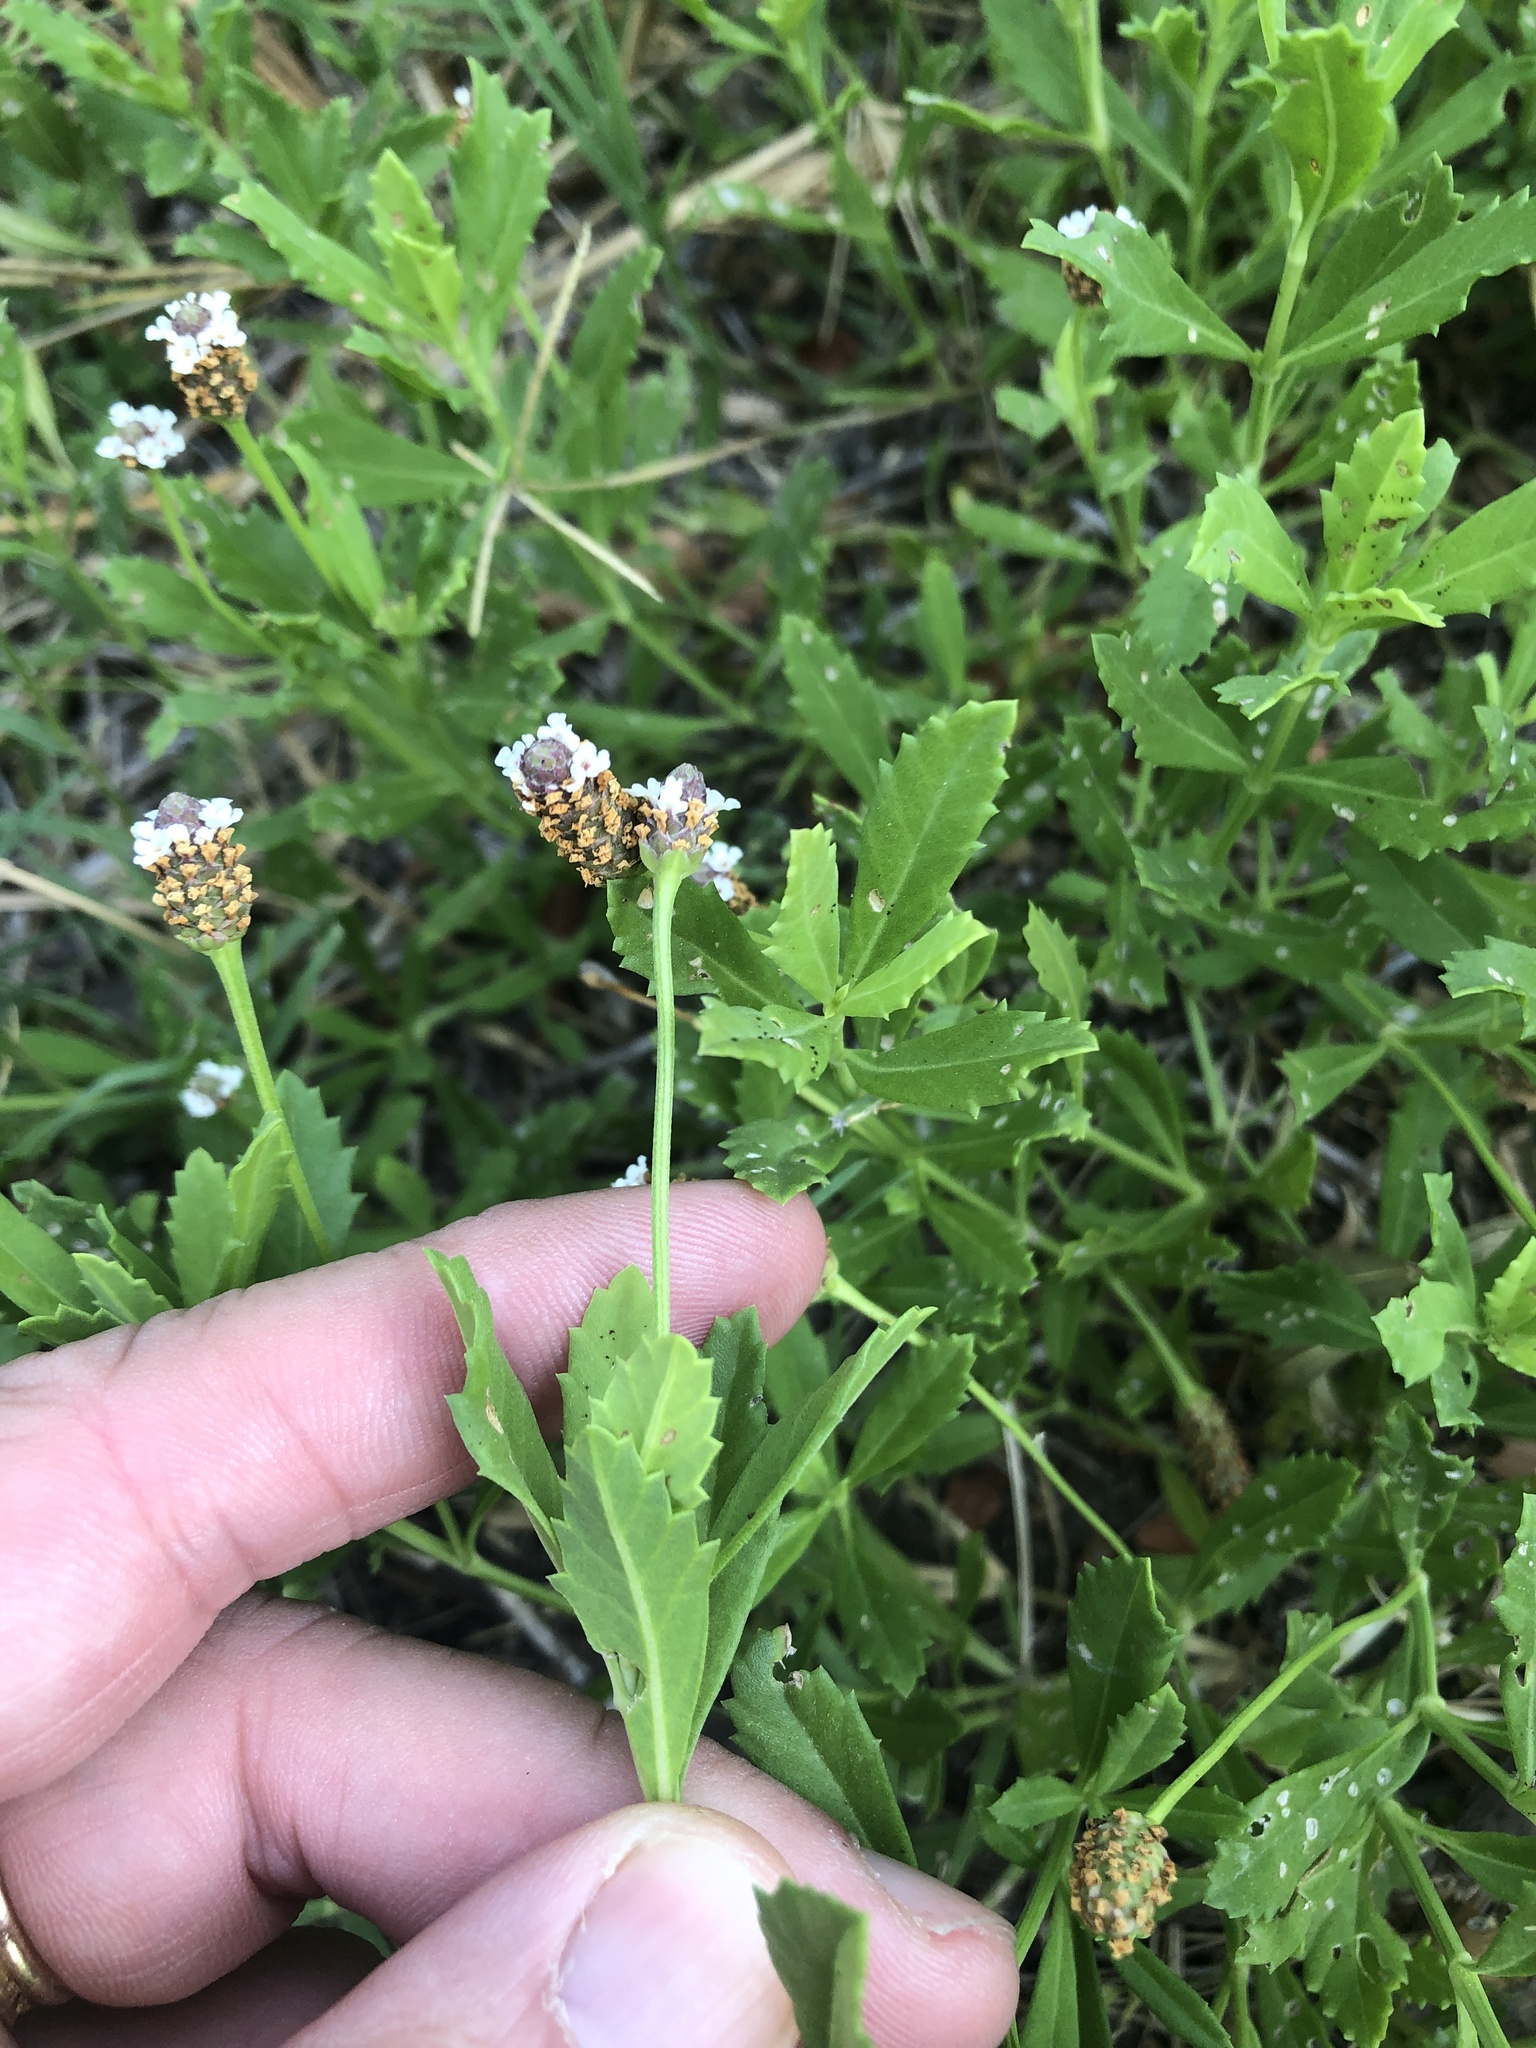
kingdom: Plantae
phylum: Tracheophyta
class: Magnoliopsida
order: Lamiales
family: Verbenaceae
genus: Phyla
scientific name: Phyla nodiflora
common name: Frogfruit
